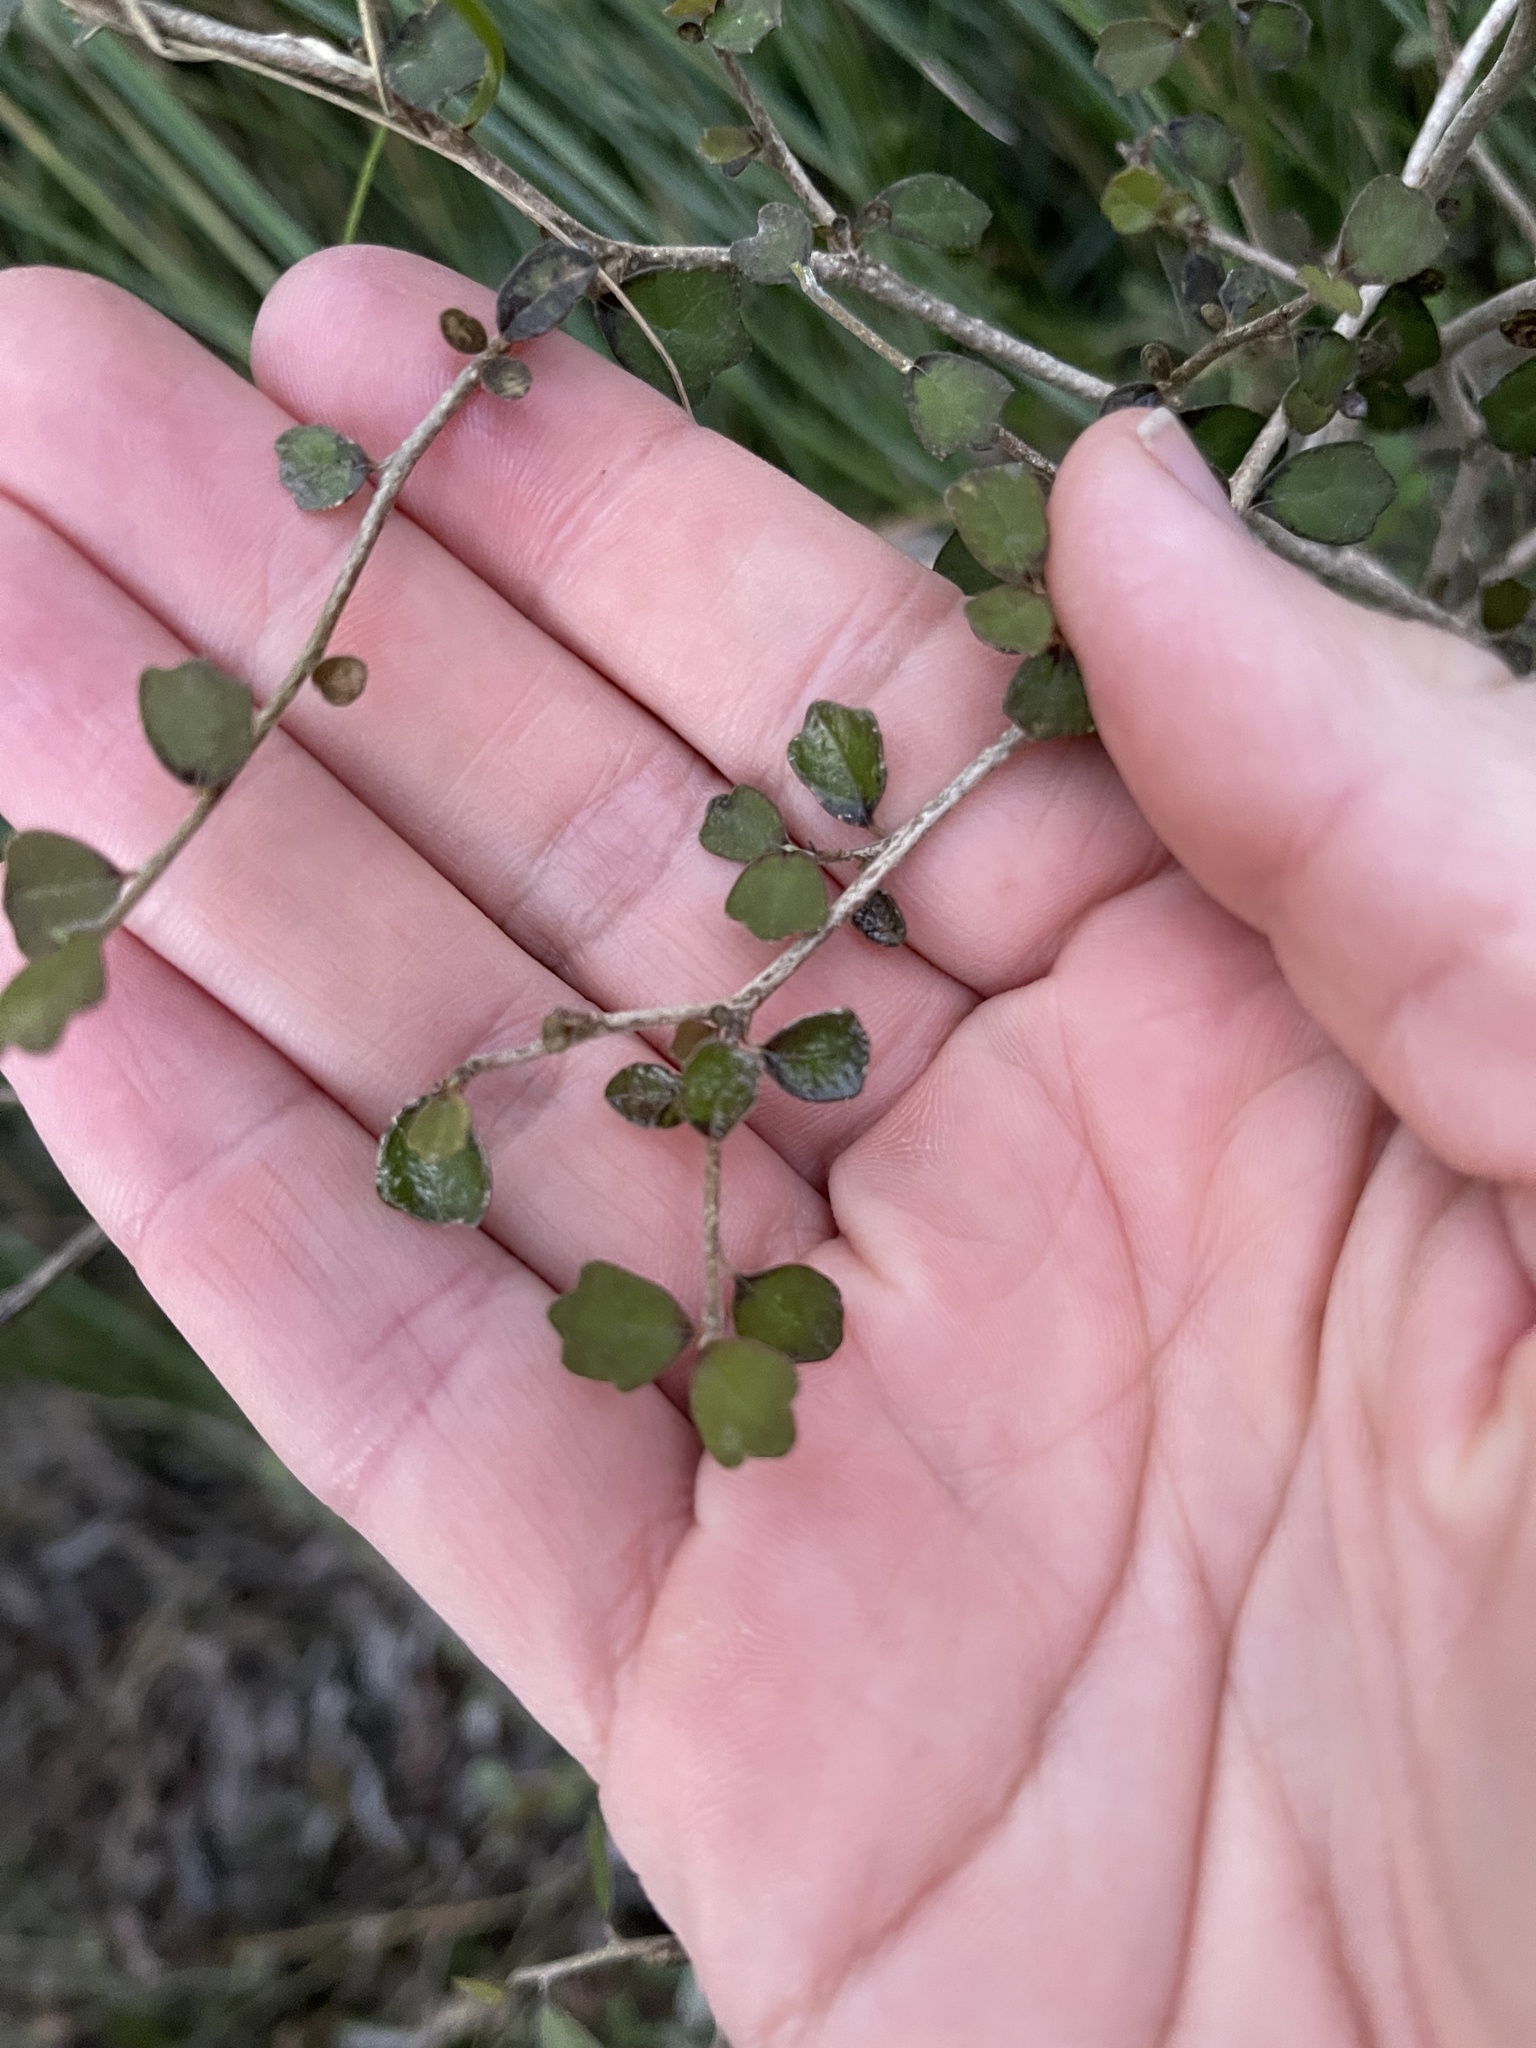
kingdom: Plantae
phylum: Tracheophyta
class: Magnoliopsida
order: Apiales
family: Pennantiaceae
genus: Pennantia
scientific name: Pennantia corymbosa
